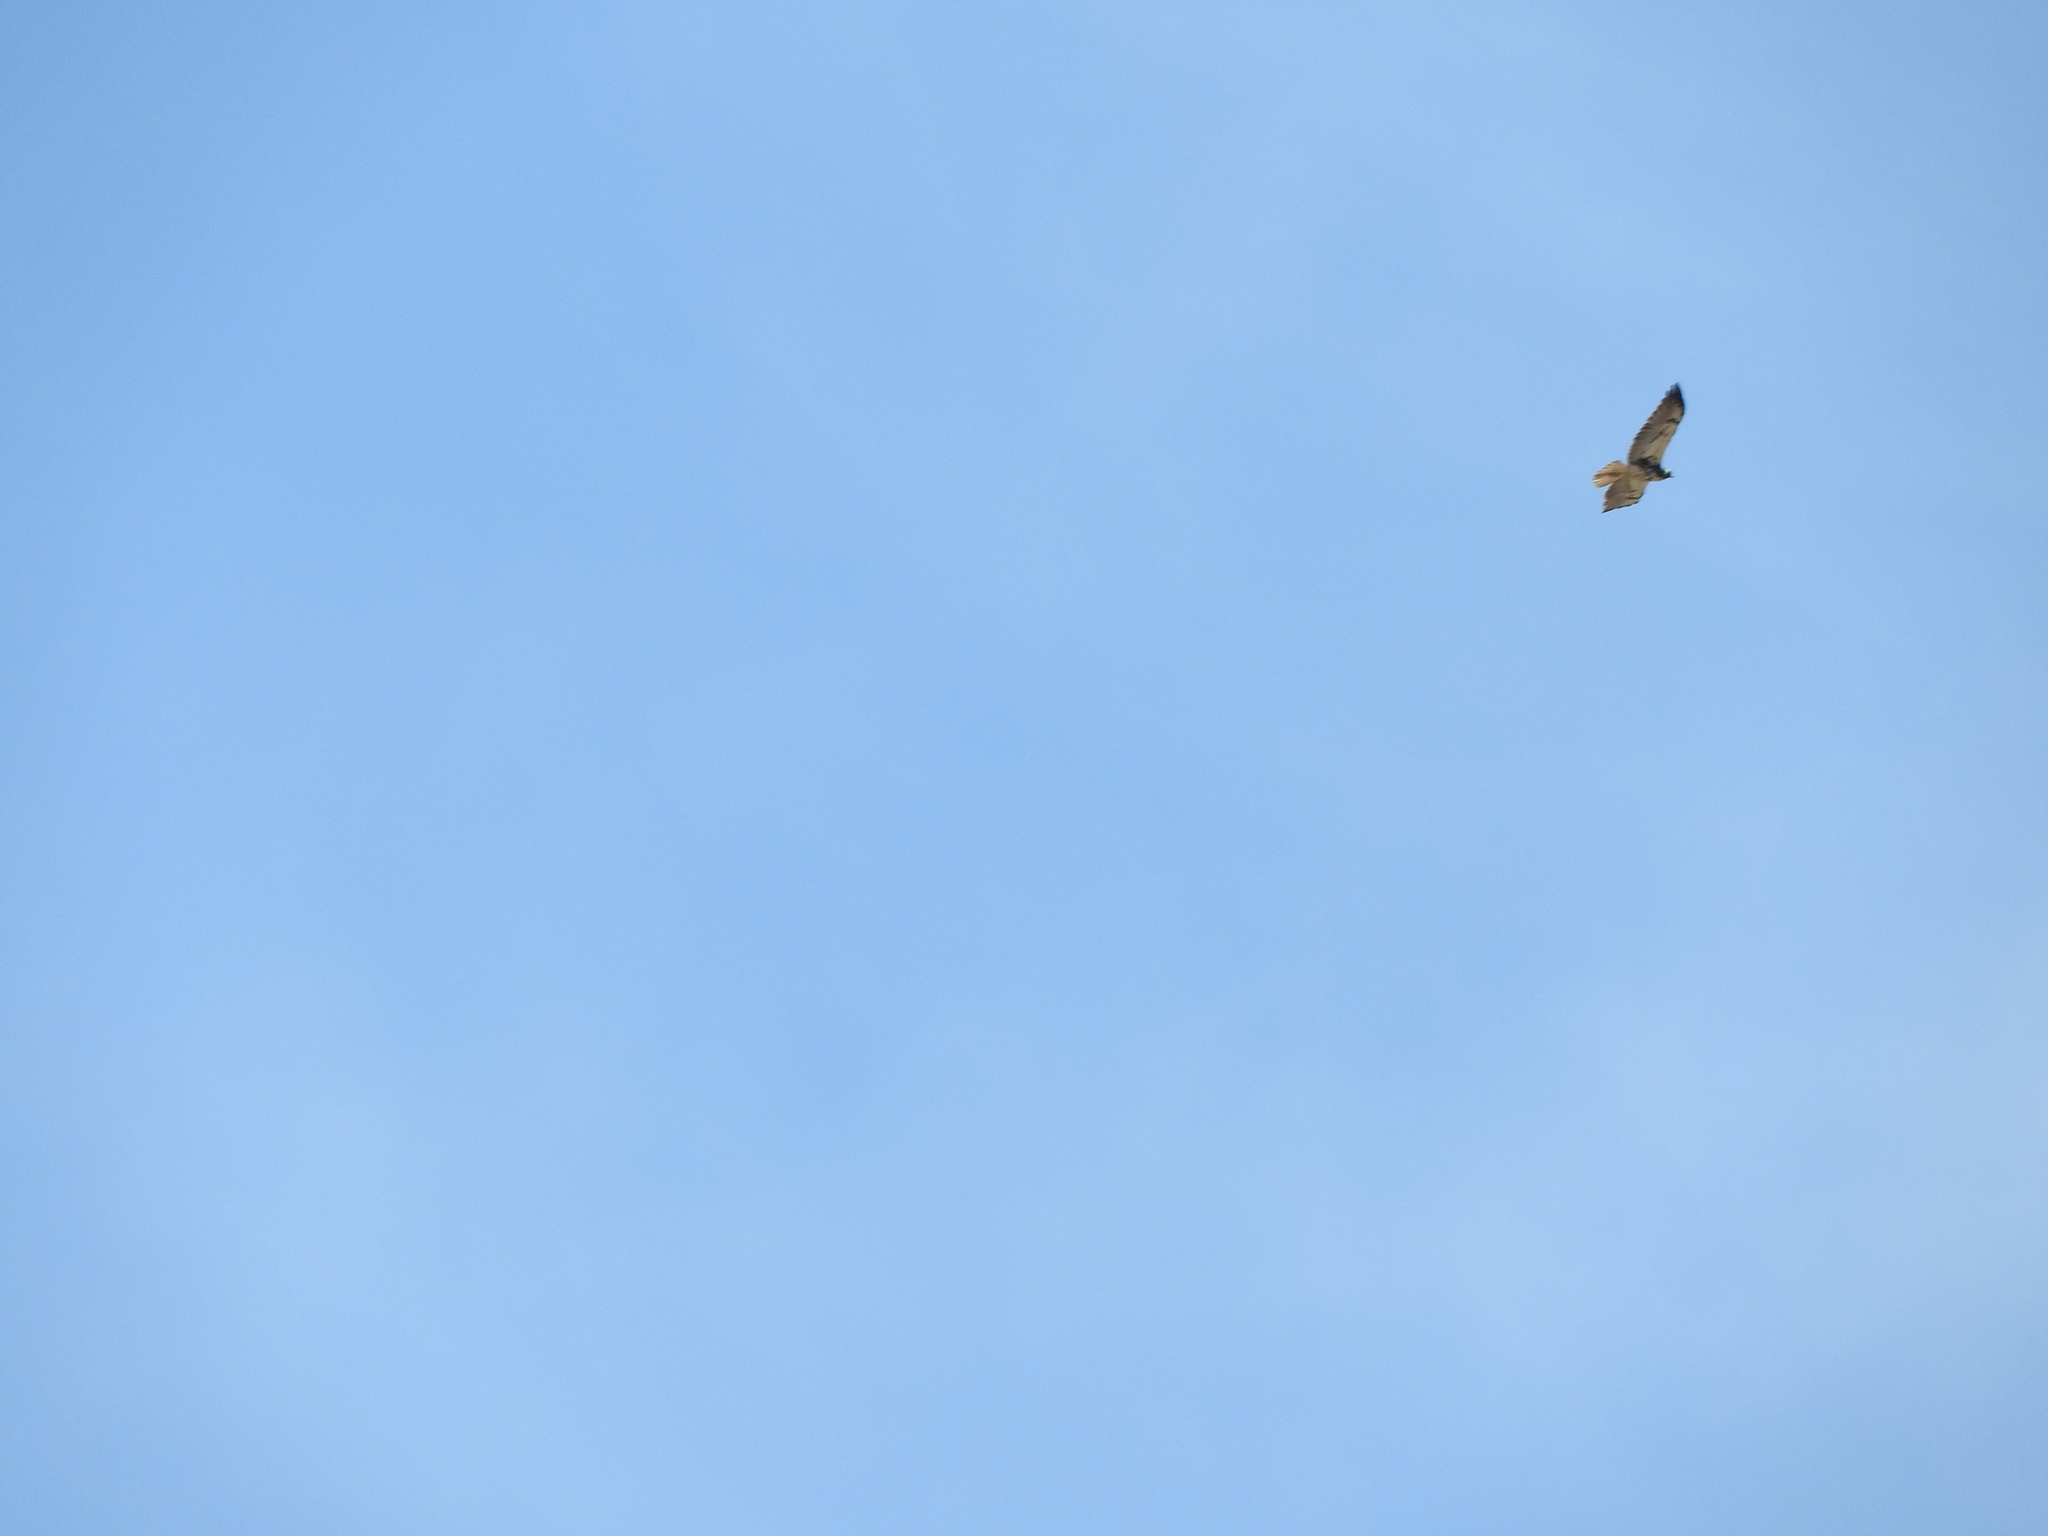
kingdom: Animalia
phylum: Chordata
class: Aves
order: Accipitriformes
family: Accipitridae
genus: Buteo
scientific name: Buteo jamaicensis
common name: Red-tailed hawk
